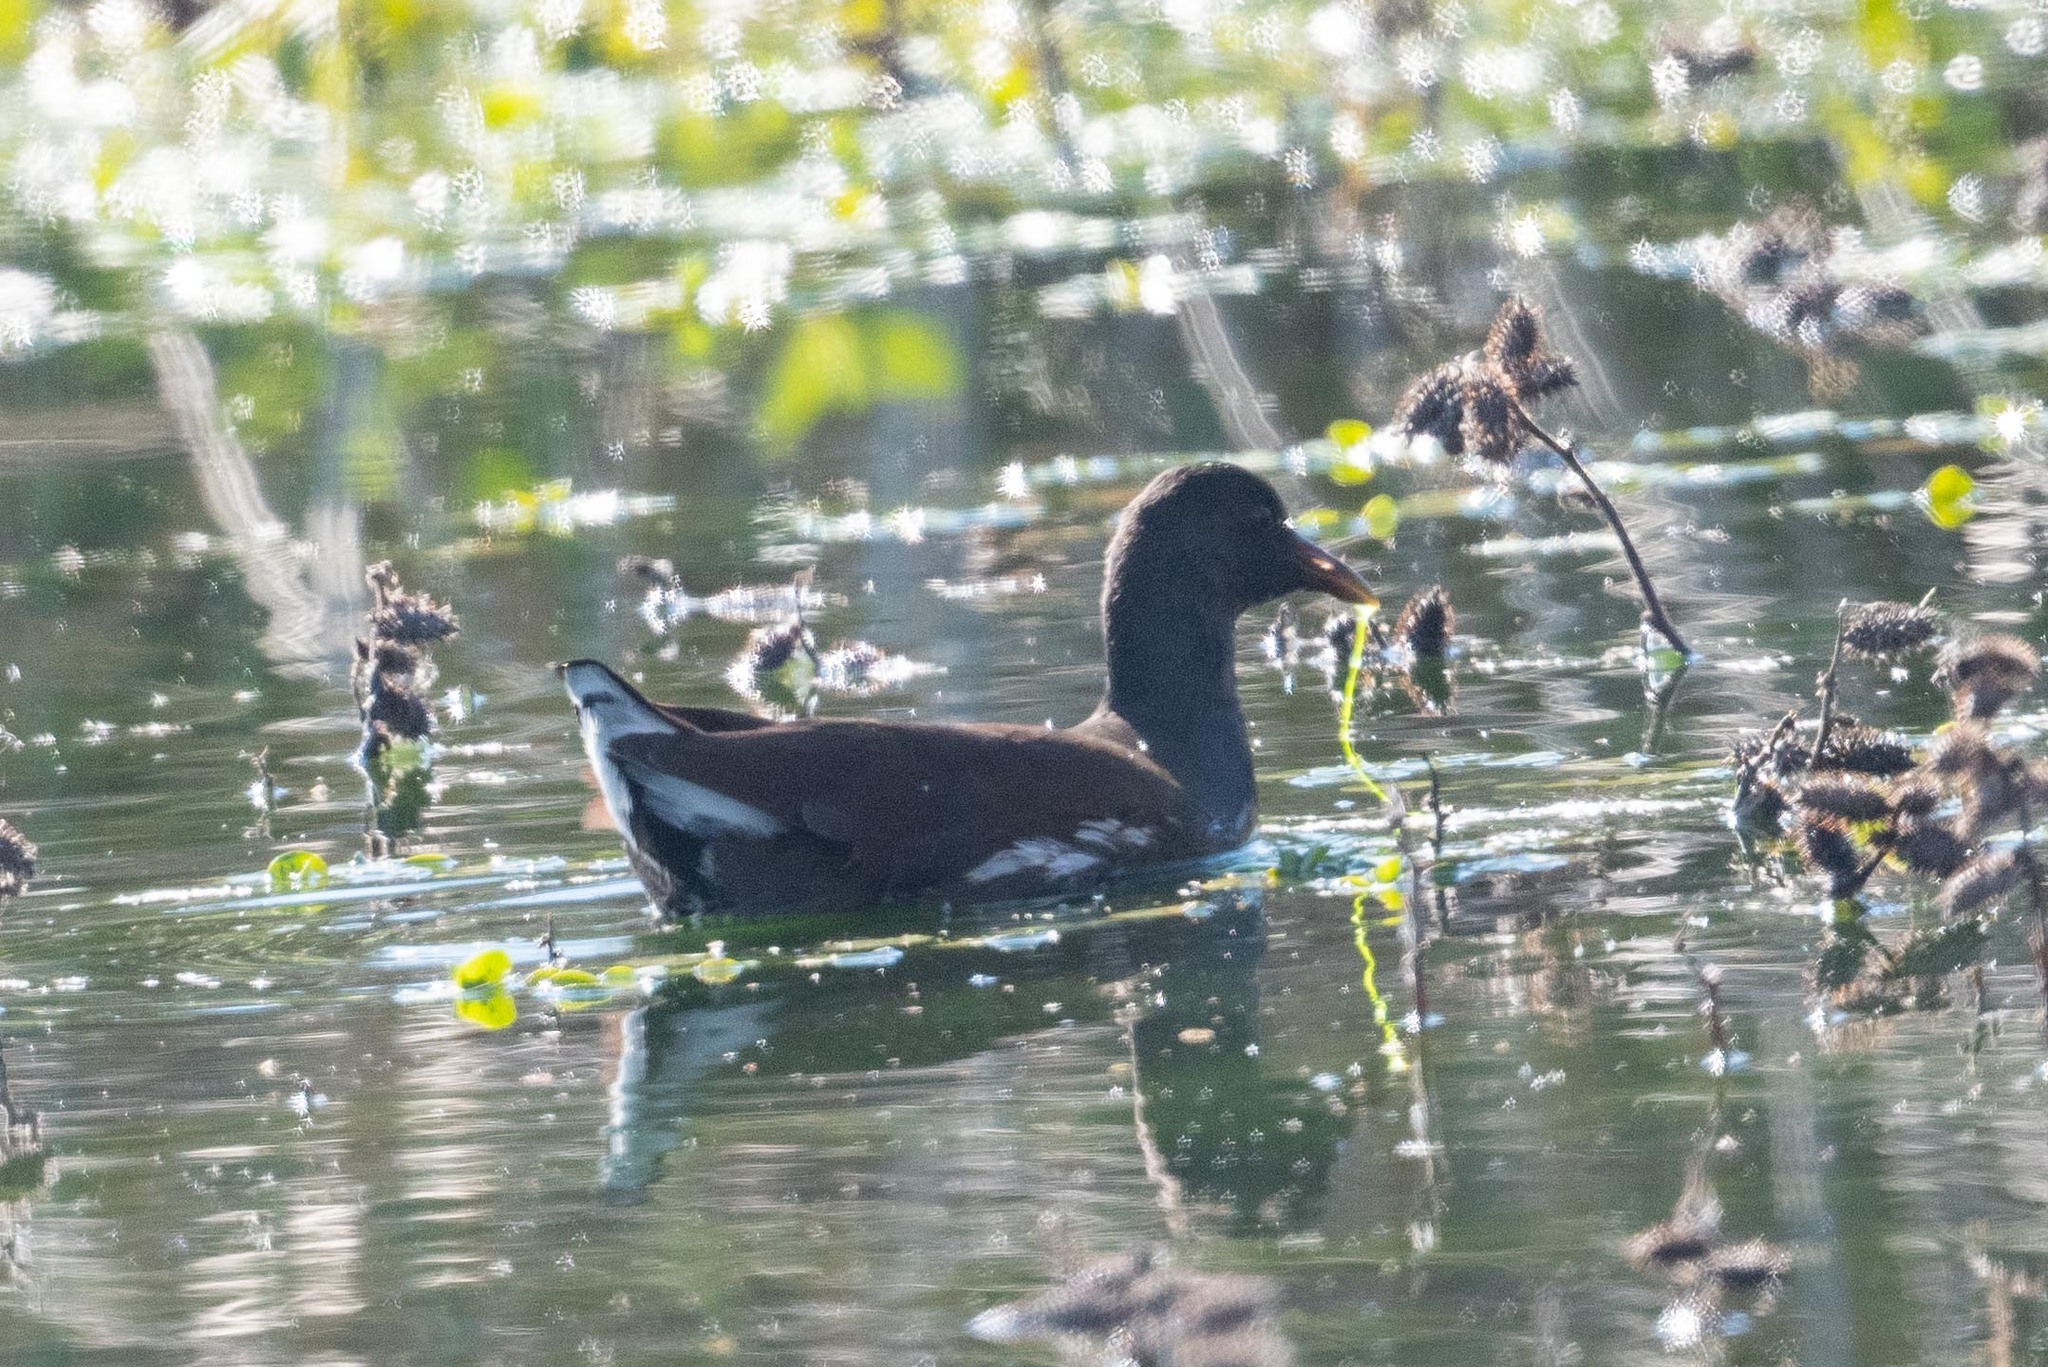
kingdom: Animalia
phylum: Chordata
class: Aves
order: Gruiformes
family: Rallidae
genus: Gallinula
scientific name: Gallinula chloropus
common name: Common moorhen
